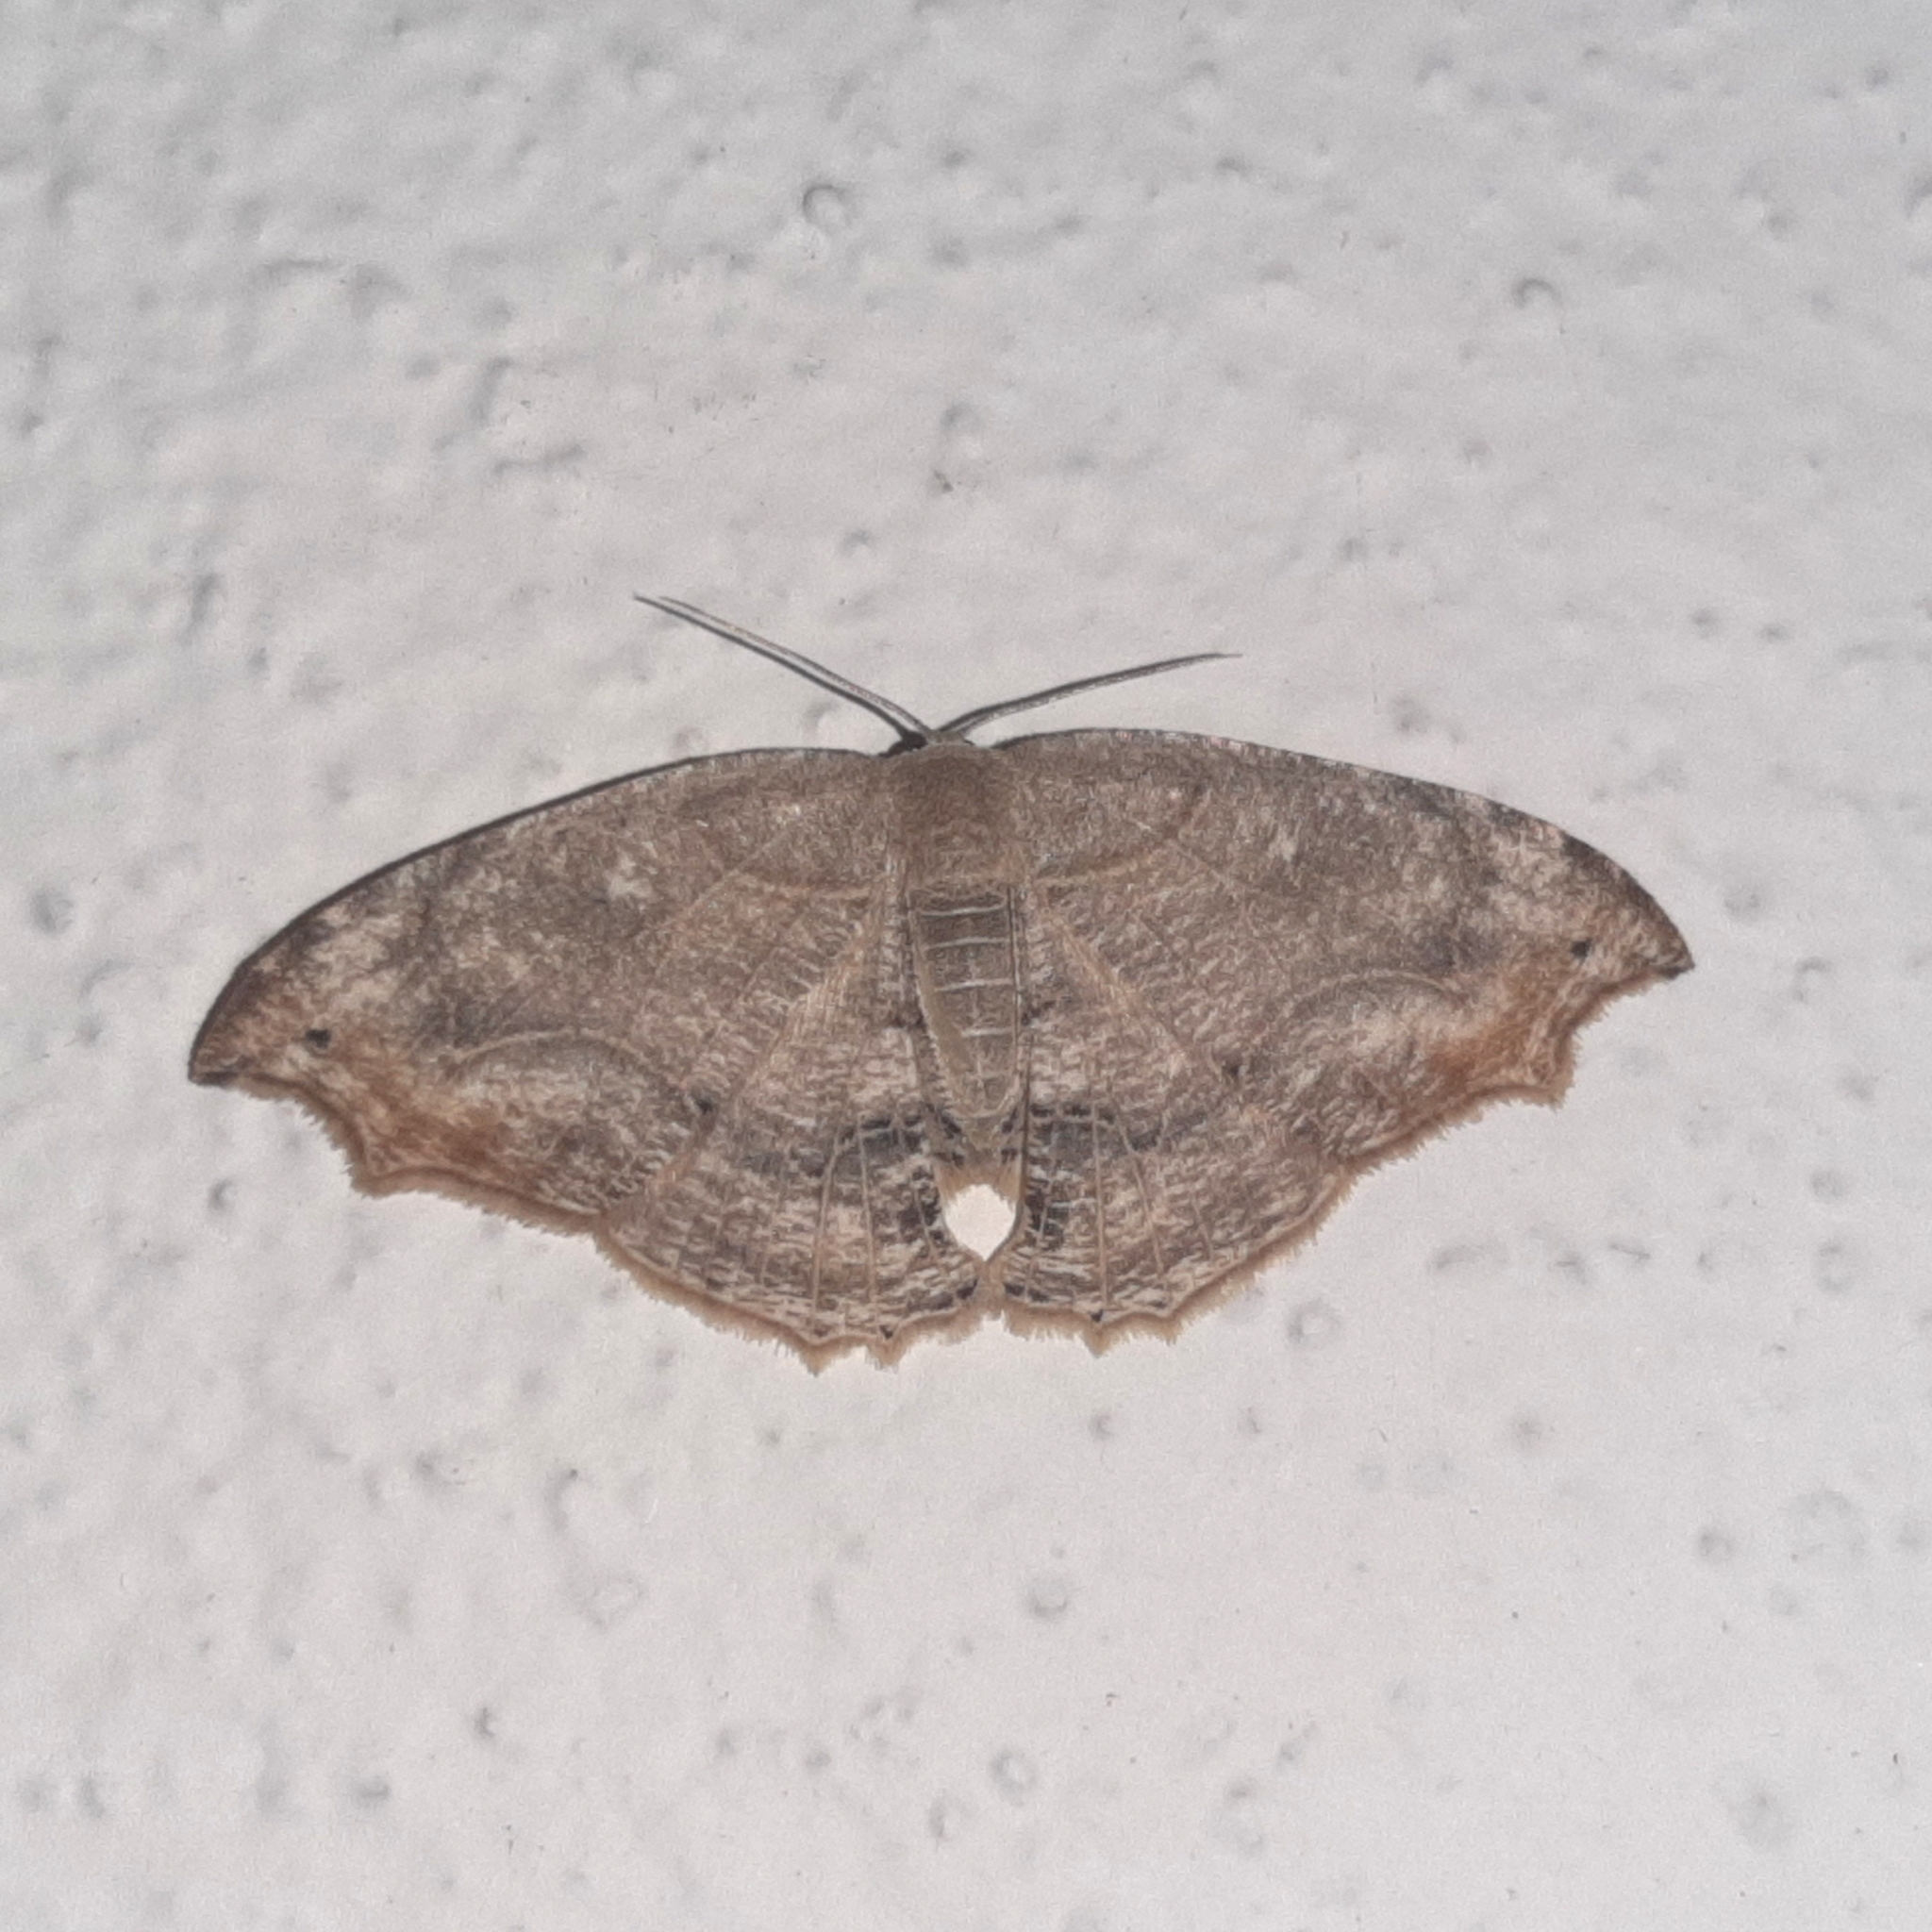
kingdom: Animalia
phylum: Arthropoda
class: Insecta
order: Lepidoptera
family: Uraniidae
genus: Coelurotricha
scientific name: Coelurotricha curvilinea
